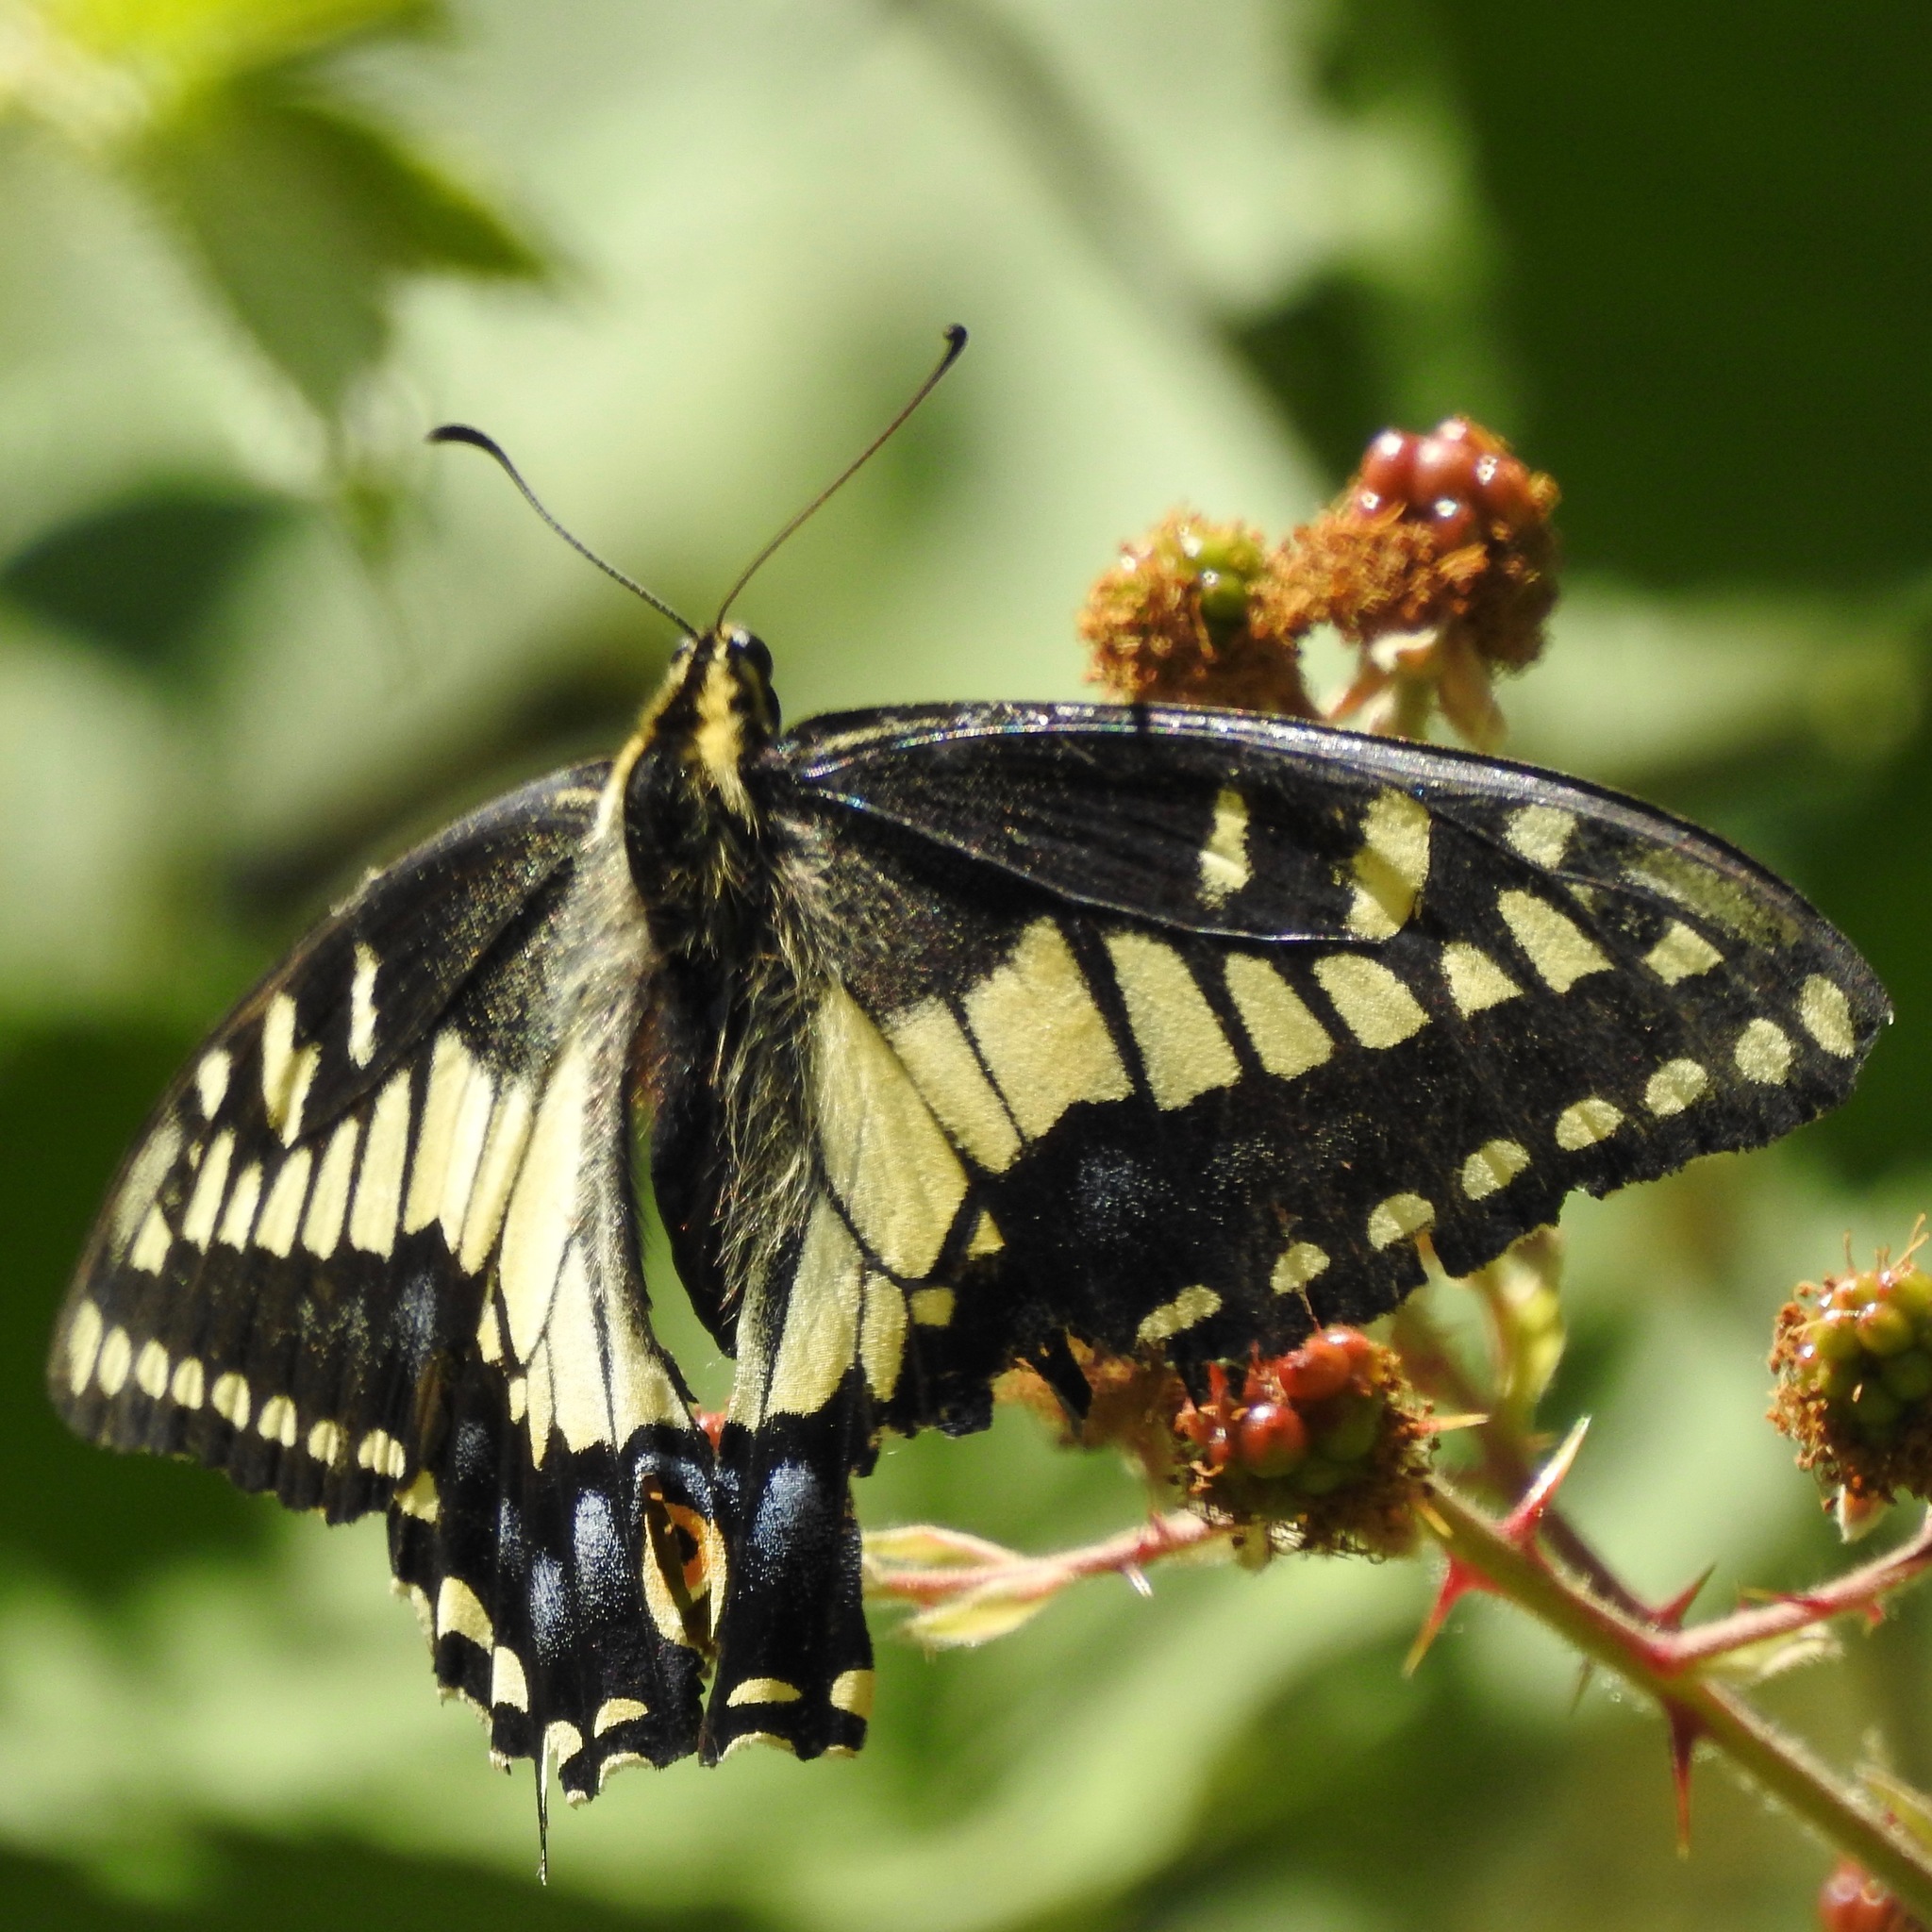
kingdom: Animalia
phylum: Arthropoda
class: Insecta
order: Lepidoptera
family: Papilionidae
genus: Papilio
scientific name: Papilio zelicaon
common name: Anise swallowtail
